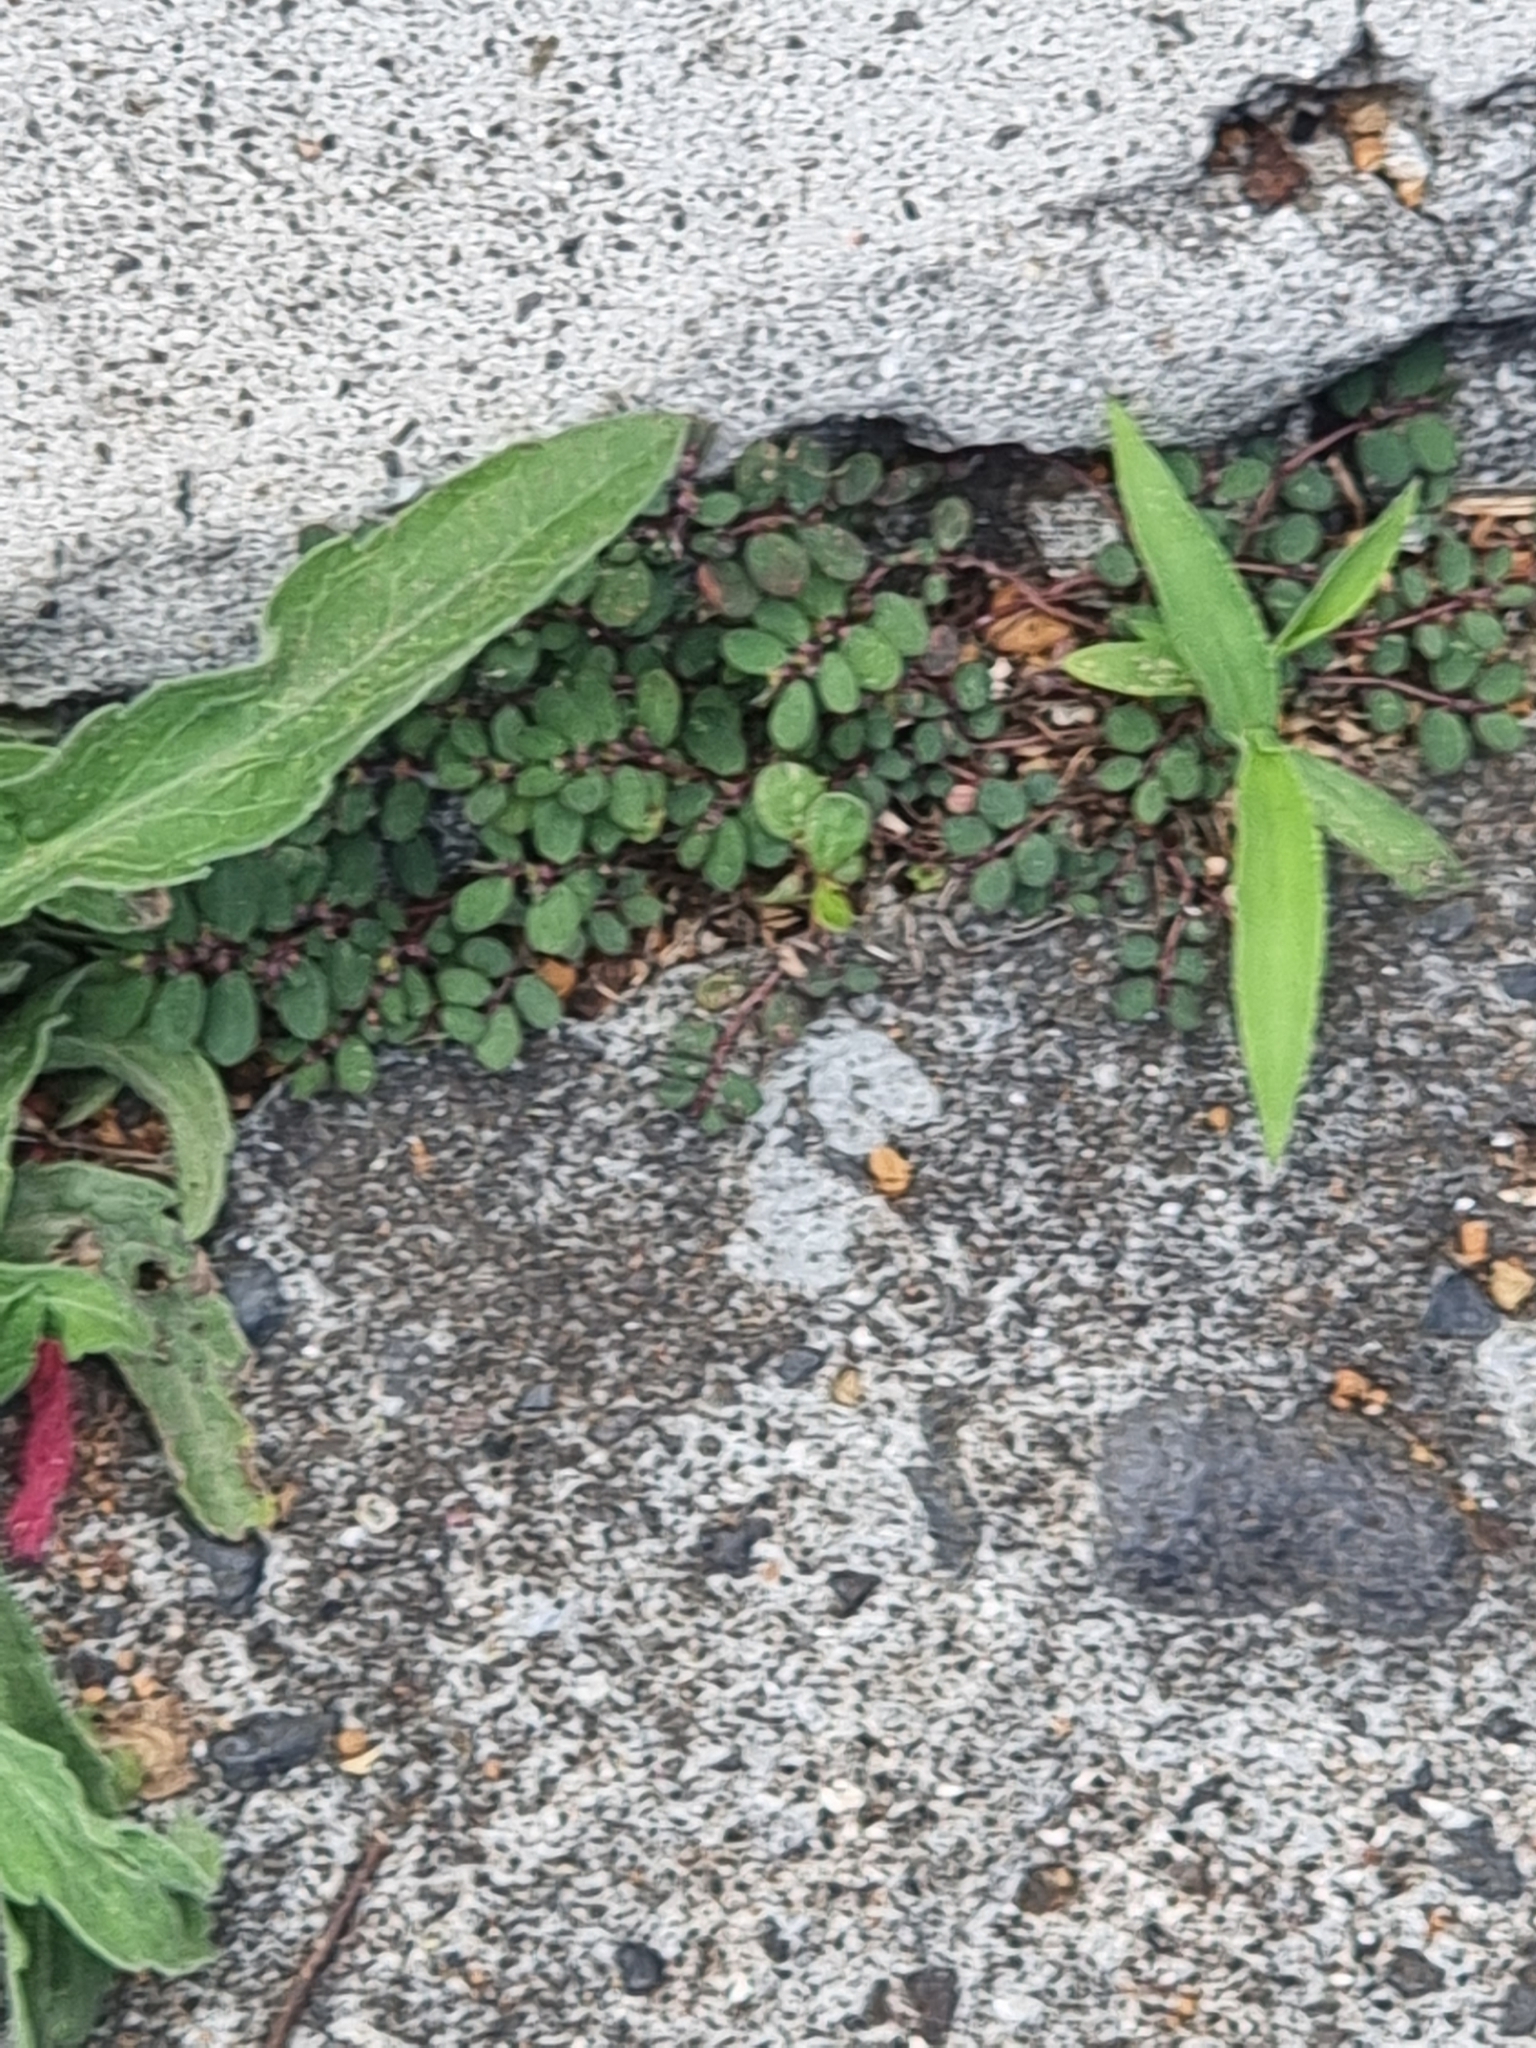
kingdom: Plantae
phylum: Tracheophyta
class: Magnoliopsida
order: Malpighiales
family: Euphorbiaceae
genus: Euphorbia
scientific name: Euphorbia prostrata
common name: Prostrate sandmat
